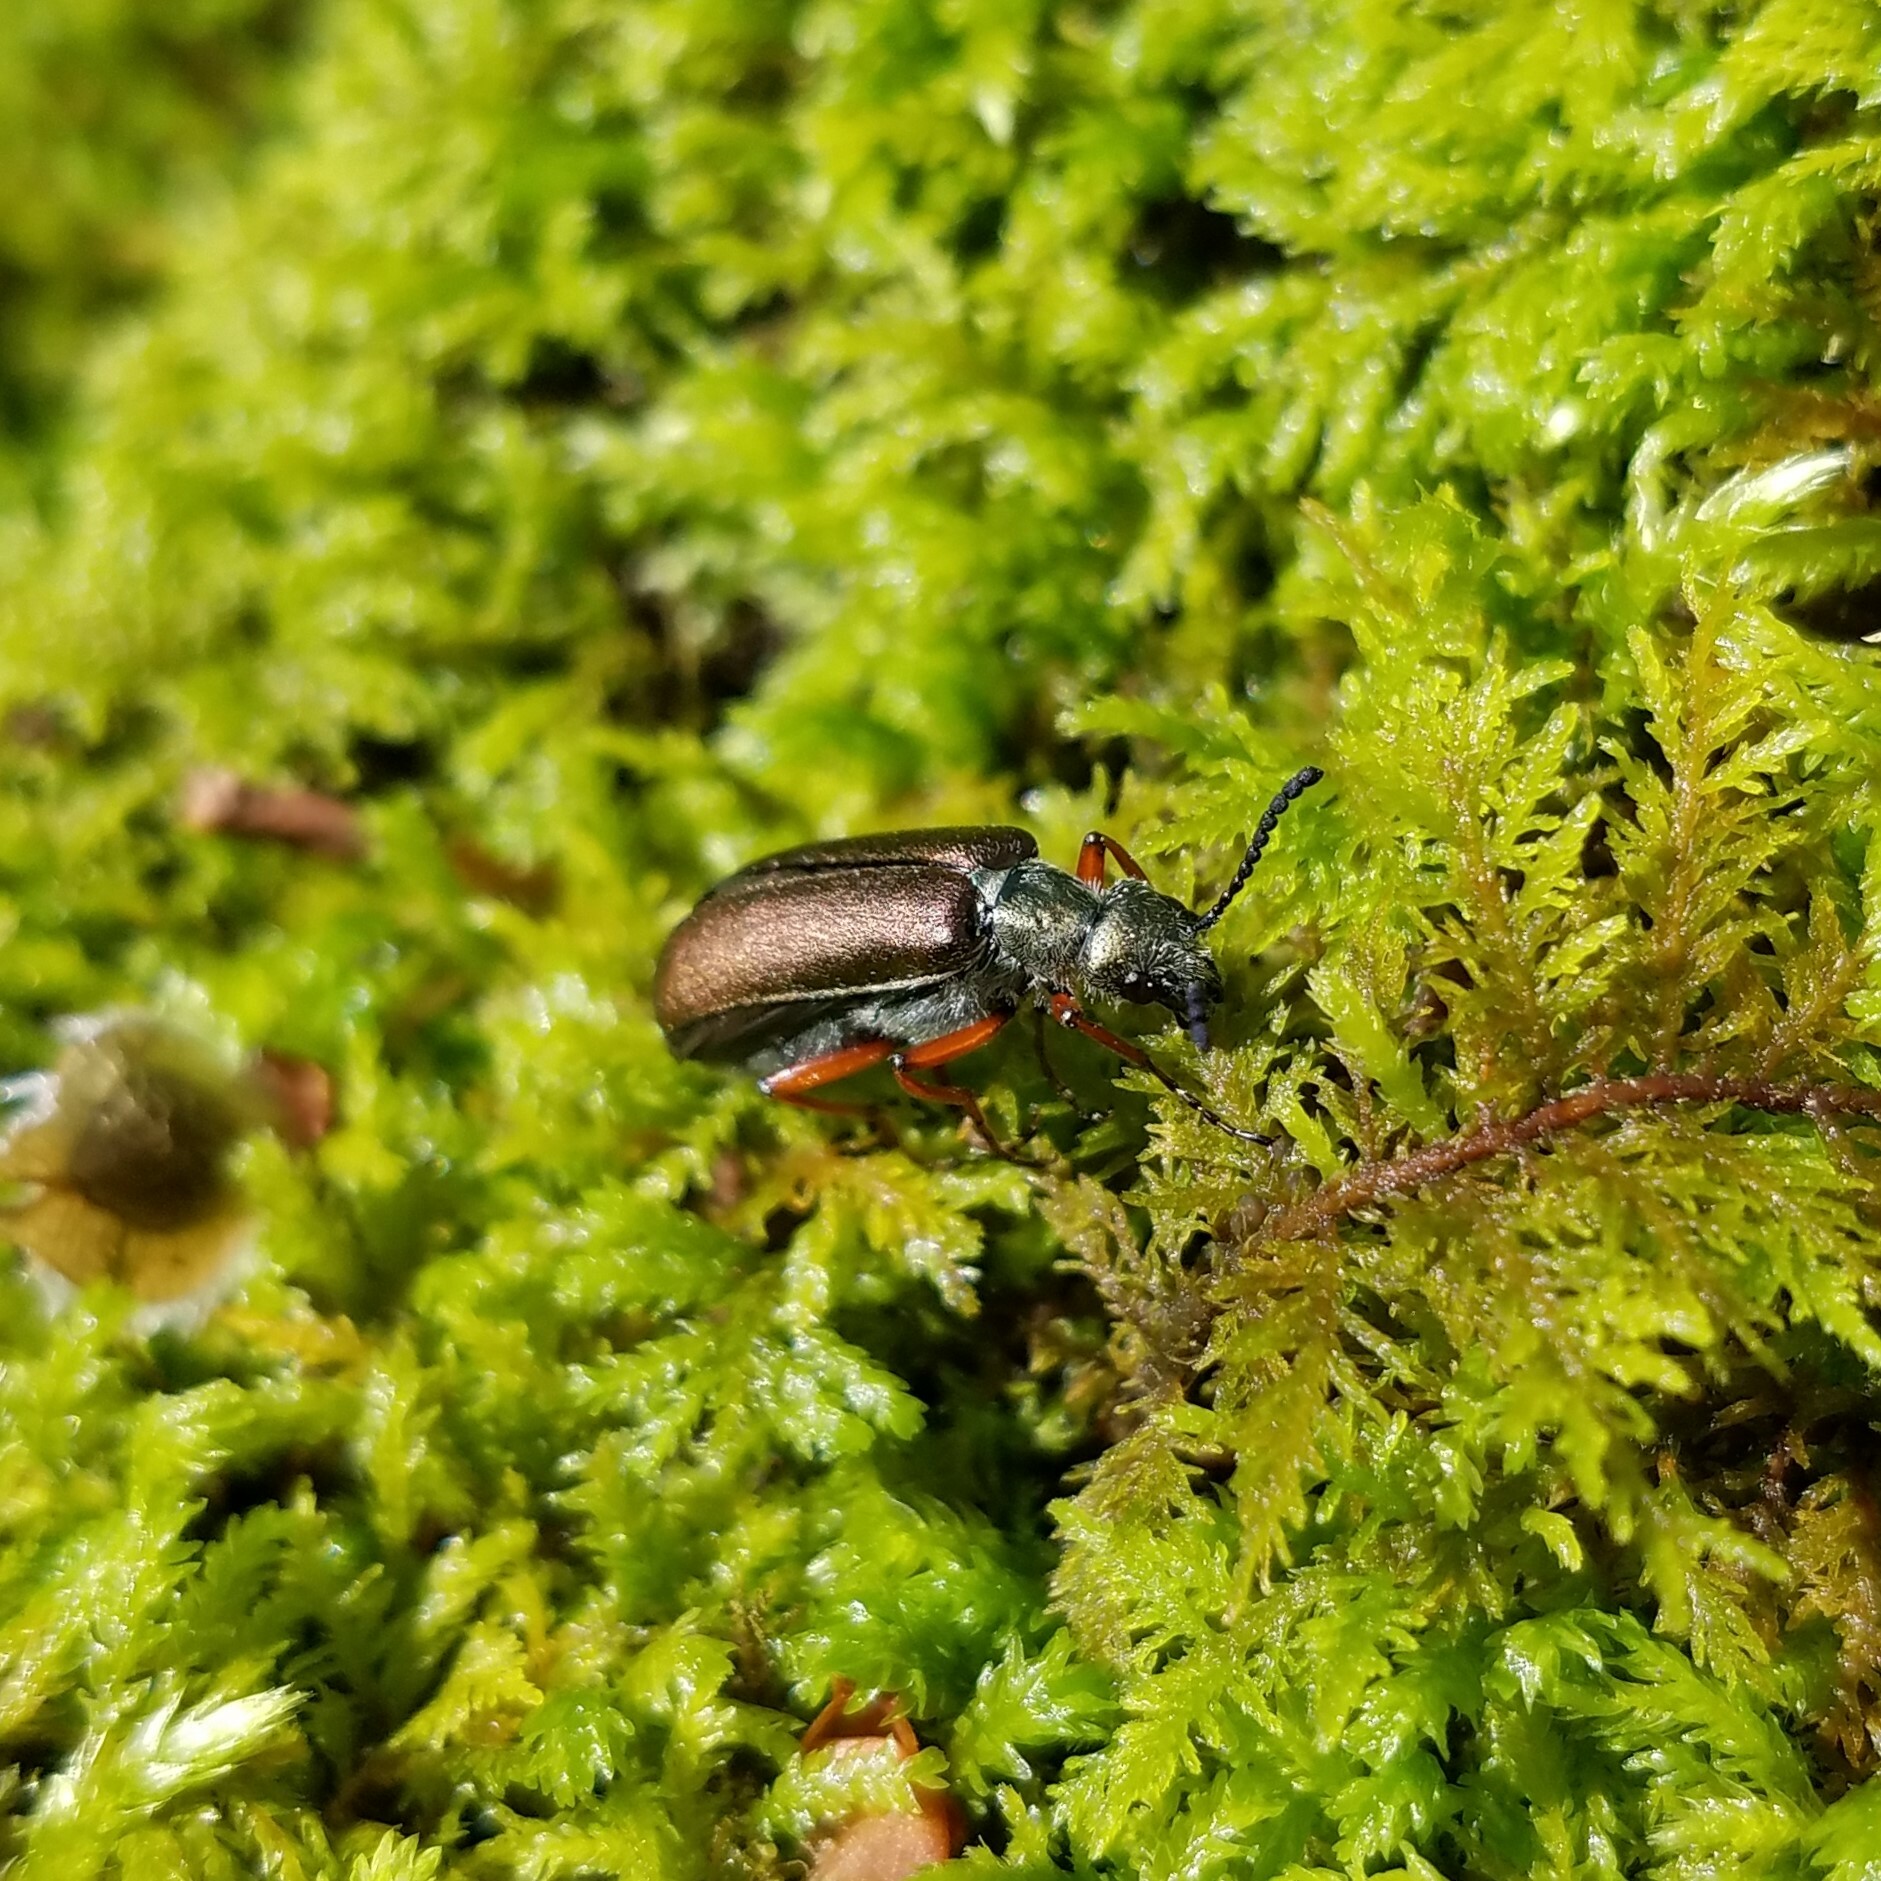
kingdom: Animalia
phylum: Arthropoda
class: Insecta
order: Coleoptera
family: Meloidae
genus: Lytta
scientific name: Lytta aenea
